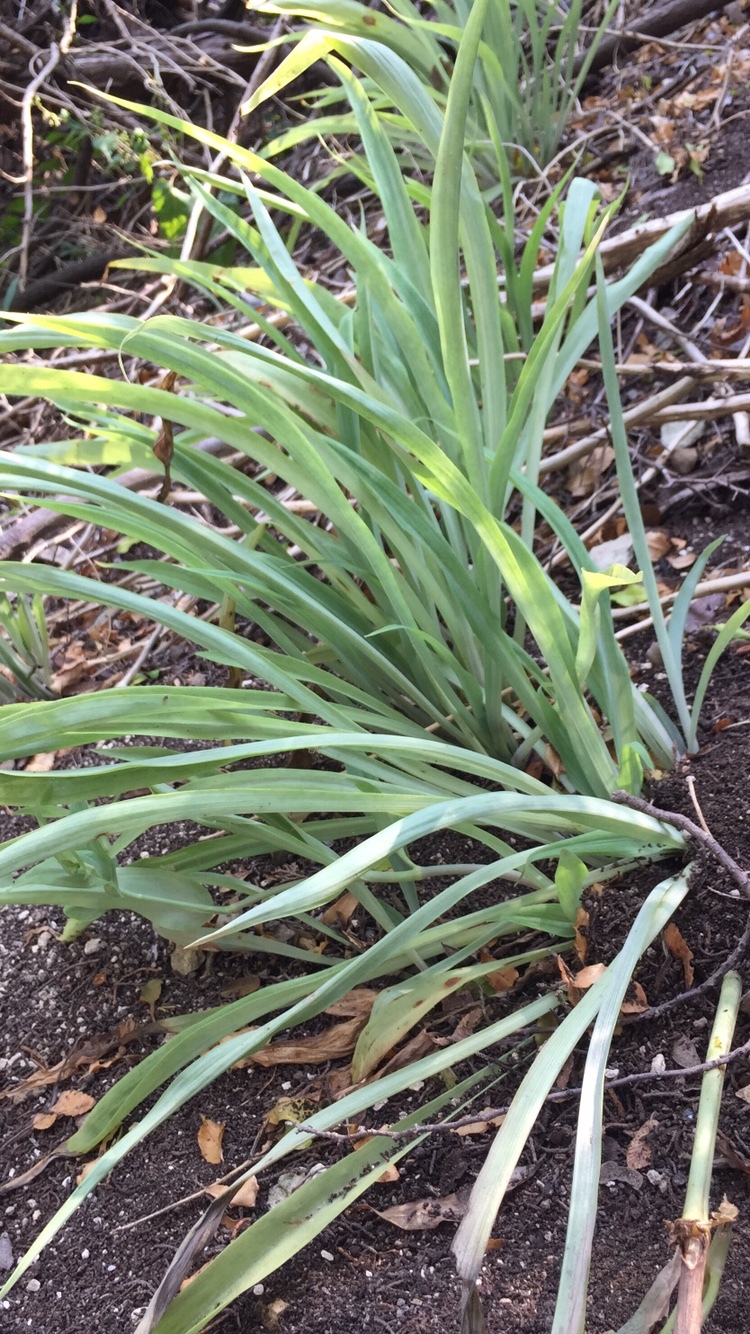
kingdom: Plantae
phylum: Tracheophyta
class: Liliopsida
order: Commelinales
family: Commelinaceae
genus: Tinantia
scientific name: Tinantia anomala
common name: False dayflower
